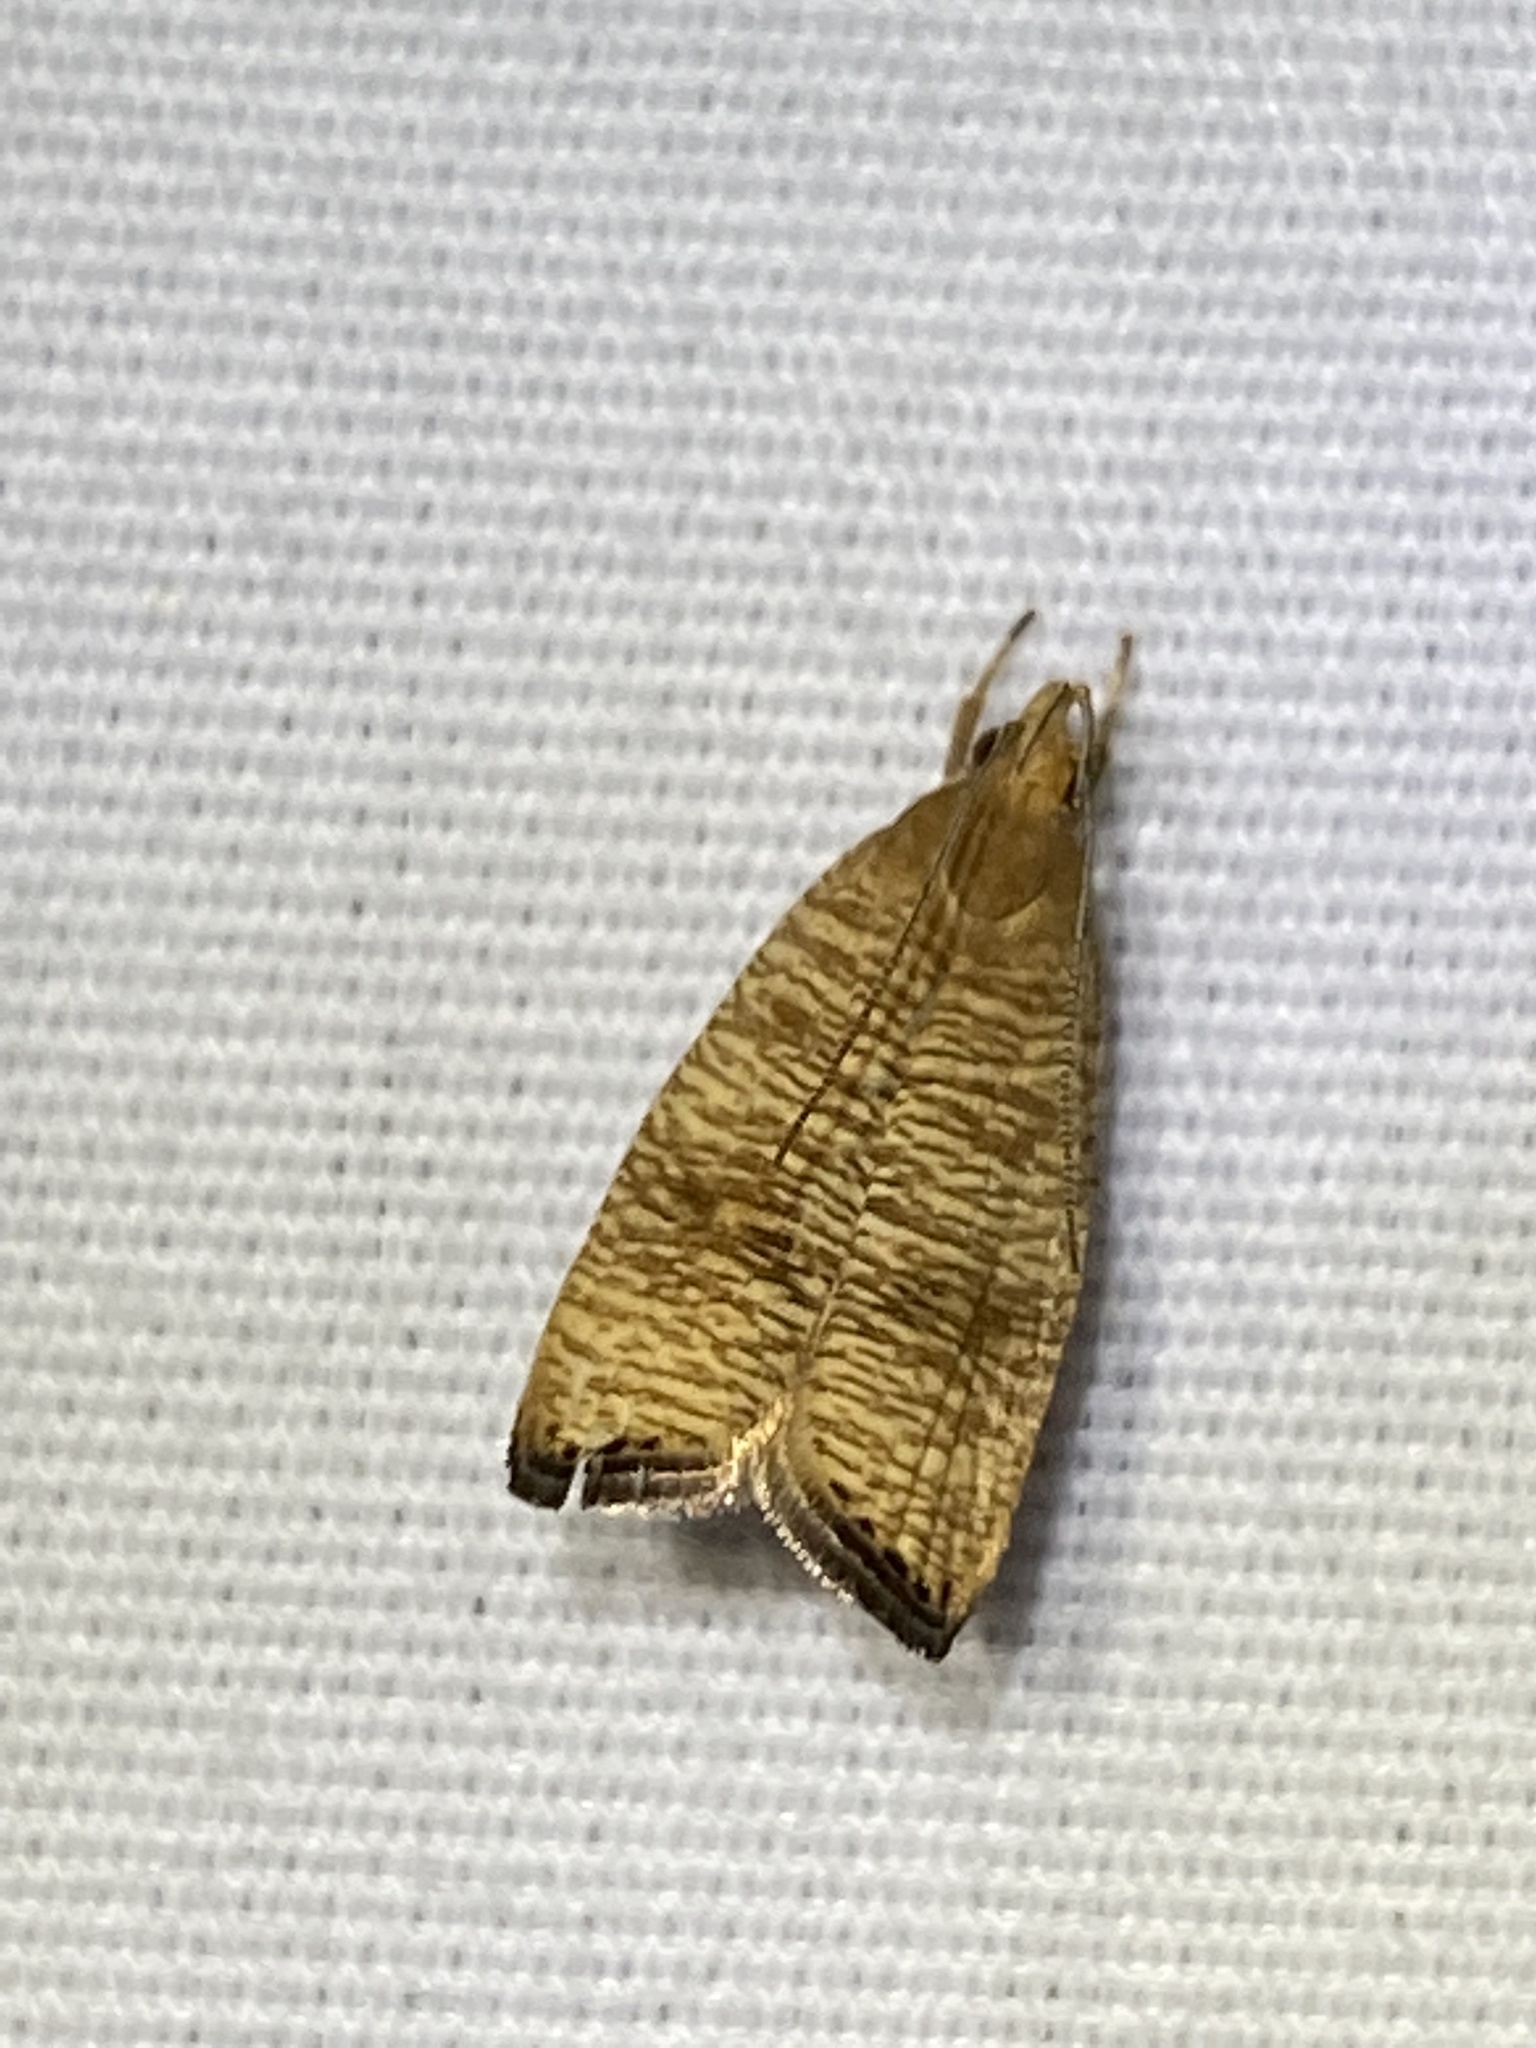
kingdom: Animalia
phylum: Arthropoda
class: Insecta
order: Lepidoptera
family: Depressariidae
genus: Psilocorsis
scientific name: Psilocorsis cryptolechiella
